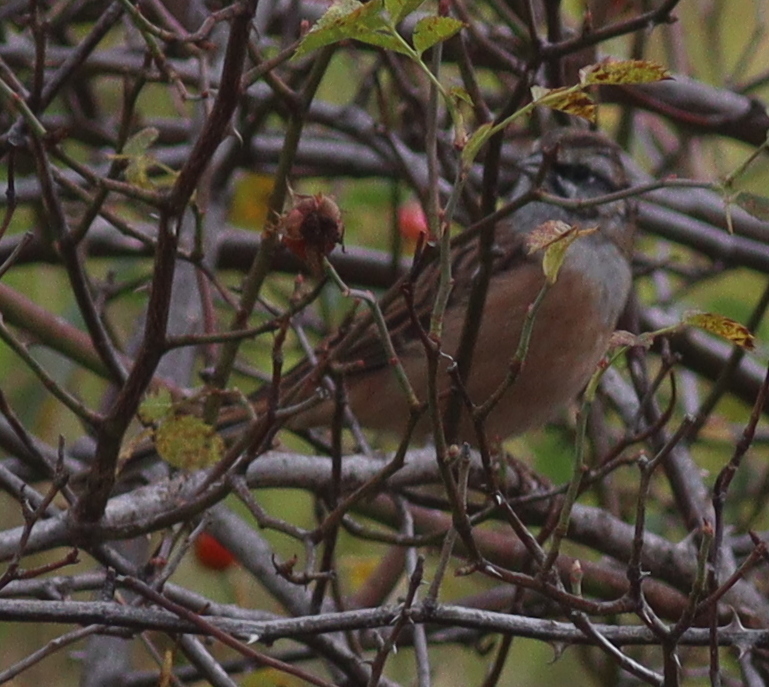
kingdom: Animalia
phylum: Chordata
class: Aves
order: Passeriformes
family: Emberizidae
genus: Emberiza
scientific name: Emberiza cia
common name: Rock bunting
